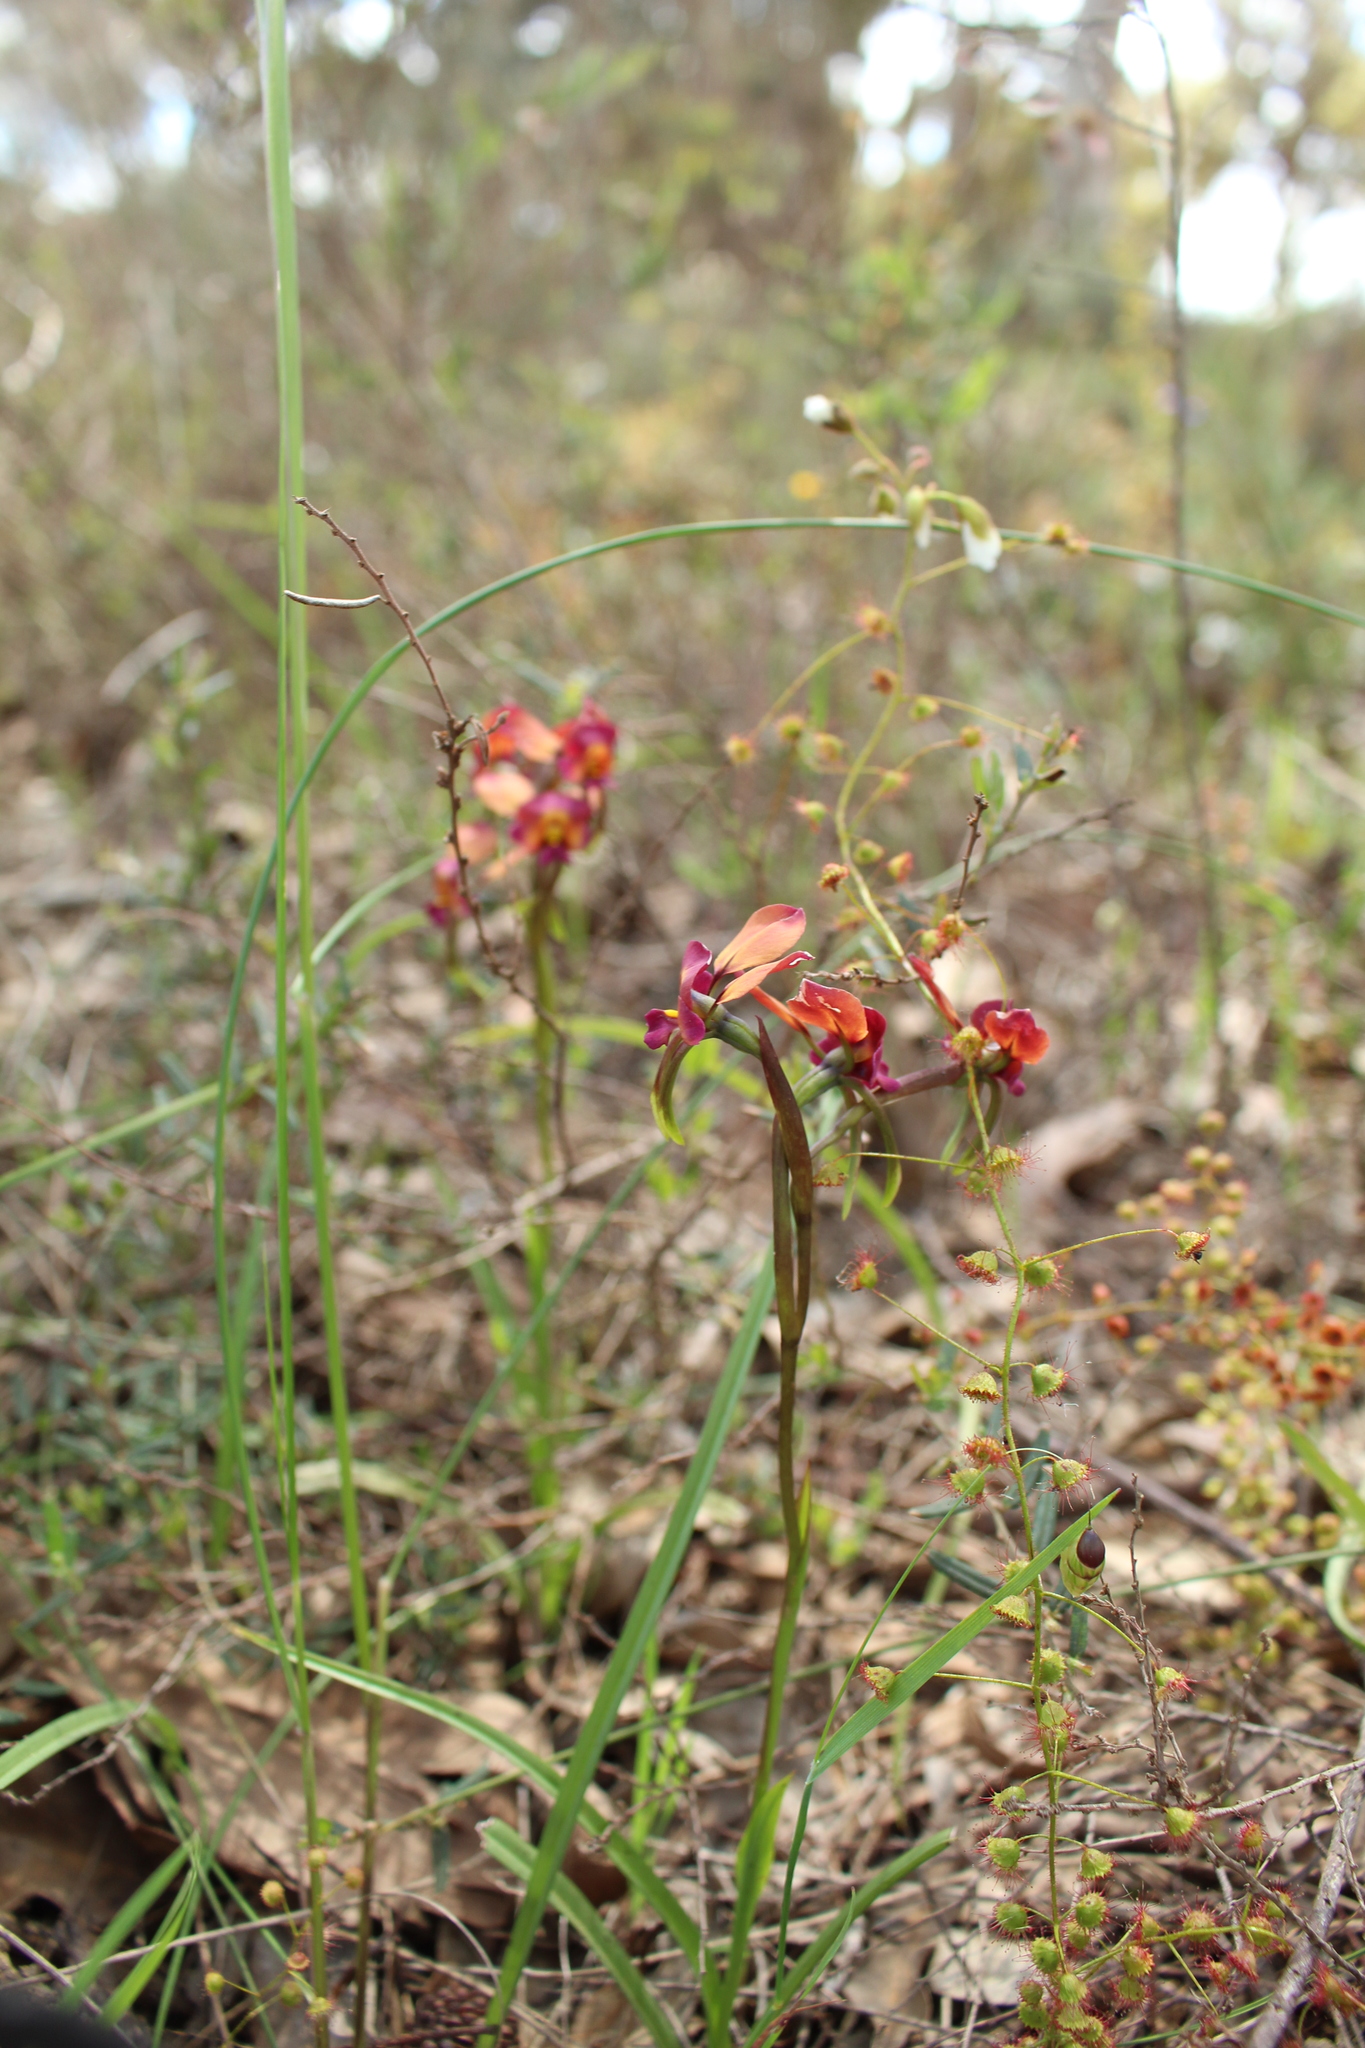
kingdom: Plantae
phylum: Tracheophyta
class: Liliopsida
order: Asparagales
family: Orchidaceae
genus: Diuris
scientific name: Diuris longifolia
